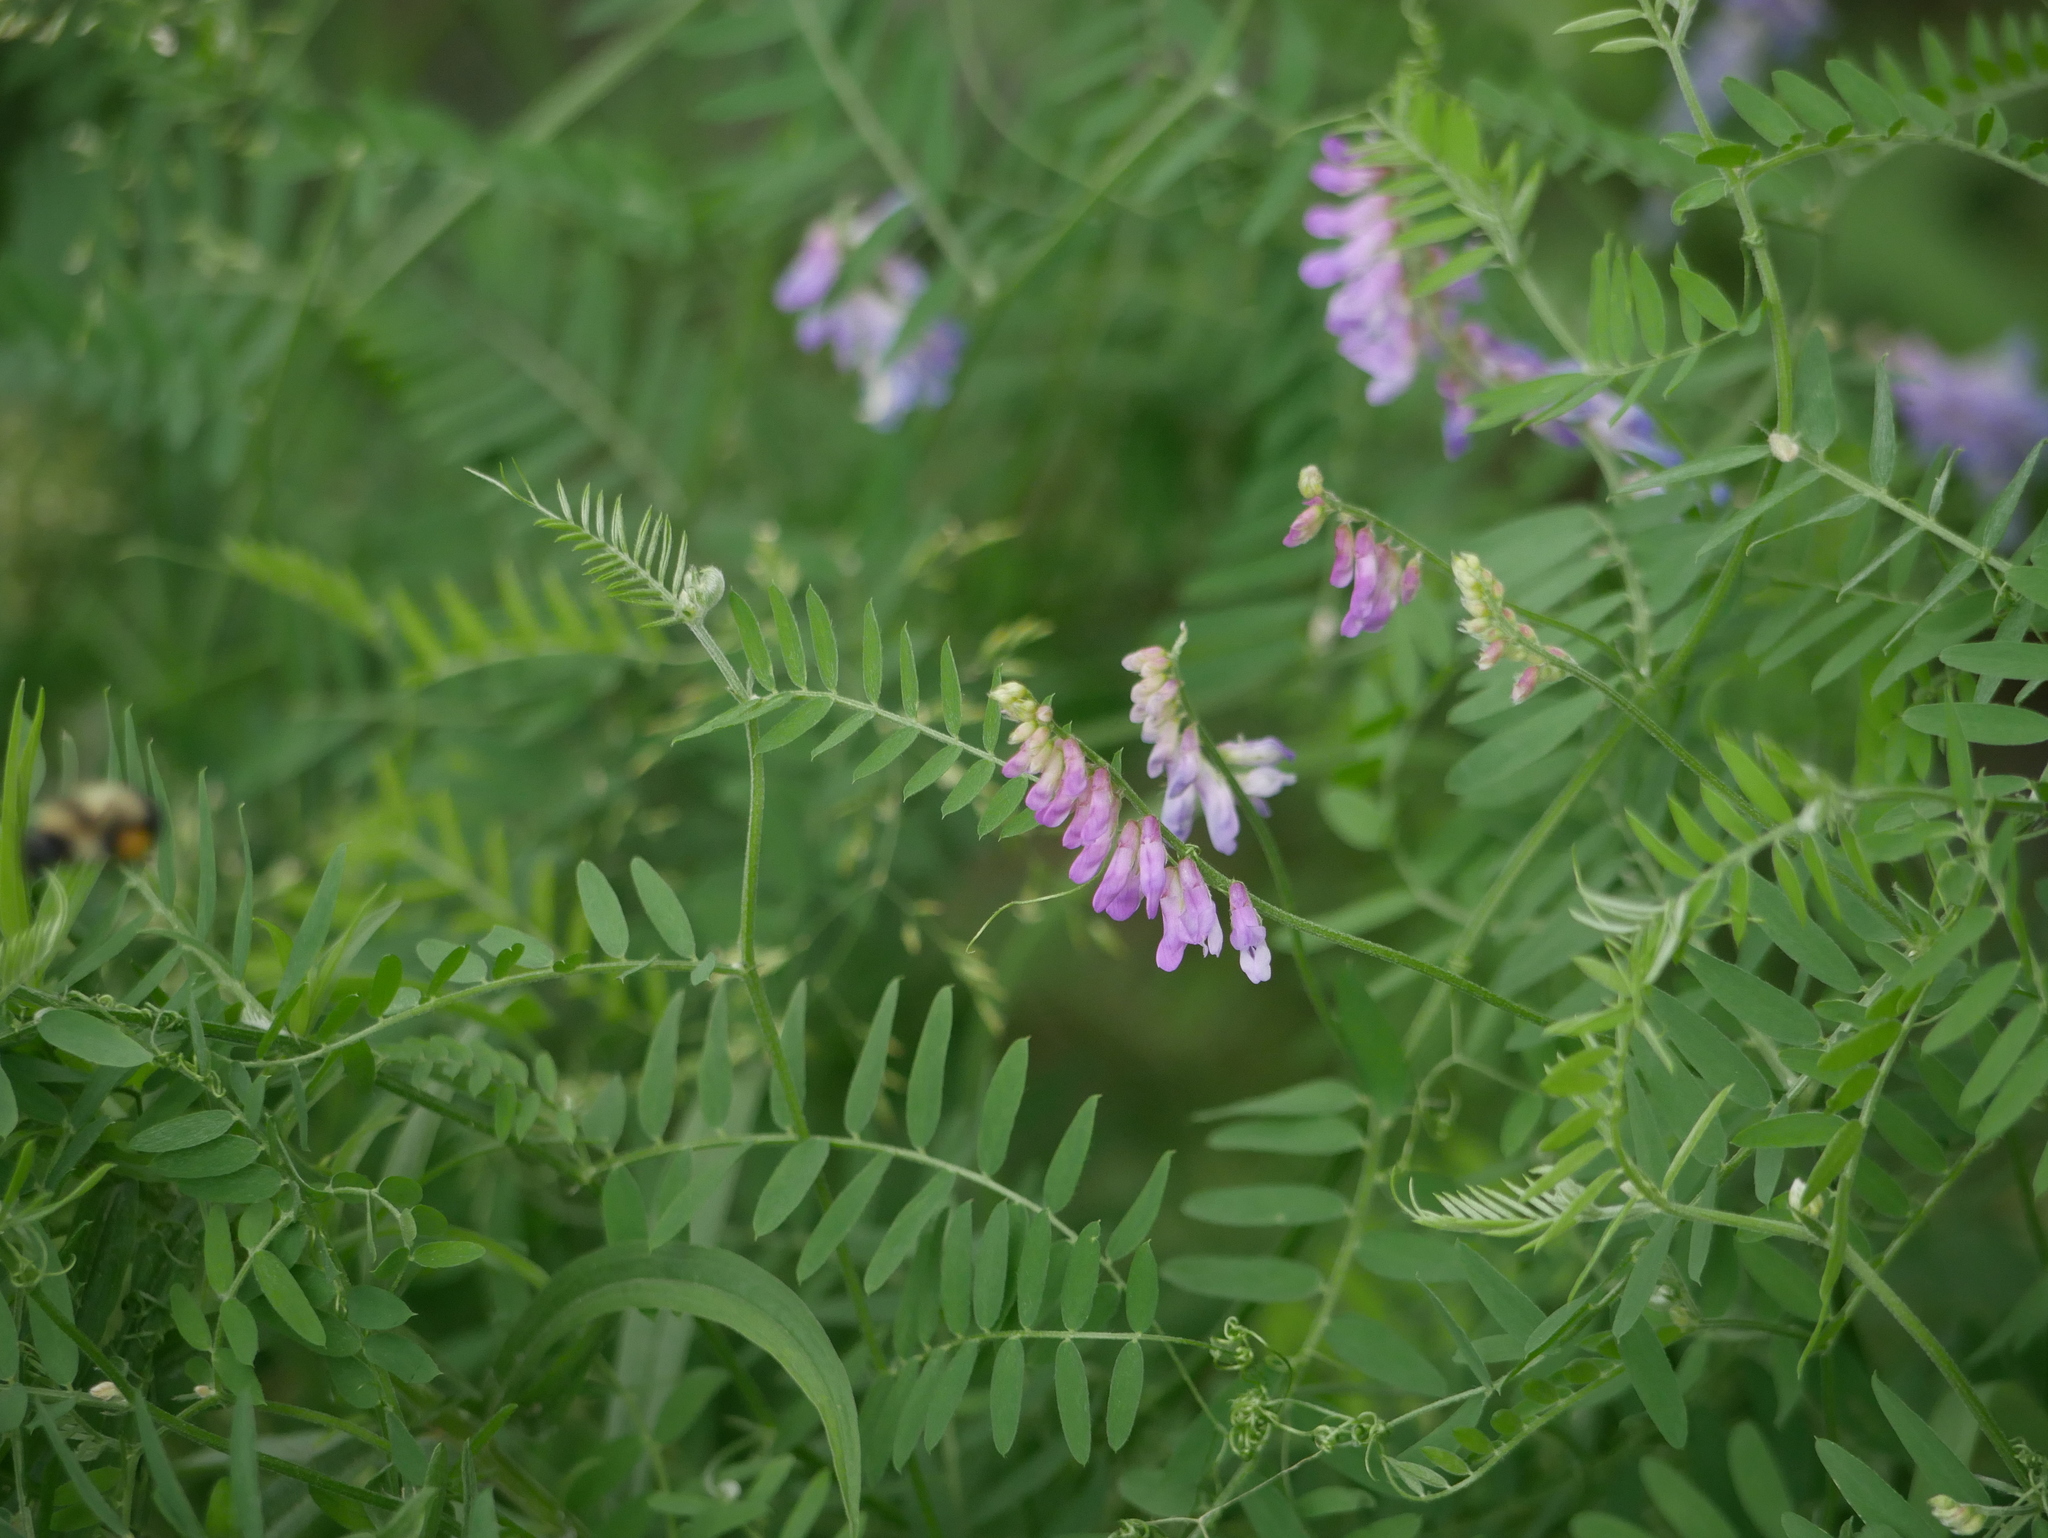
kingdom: Plantae
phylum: Tracheophyta
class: Magnoliopsida
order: Fabales
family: Fabaceae
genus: Vicia
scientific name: Vicia cracca
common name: Bird vetch
